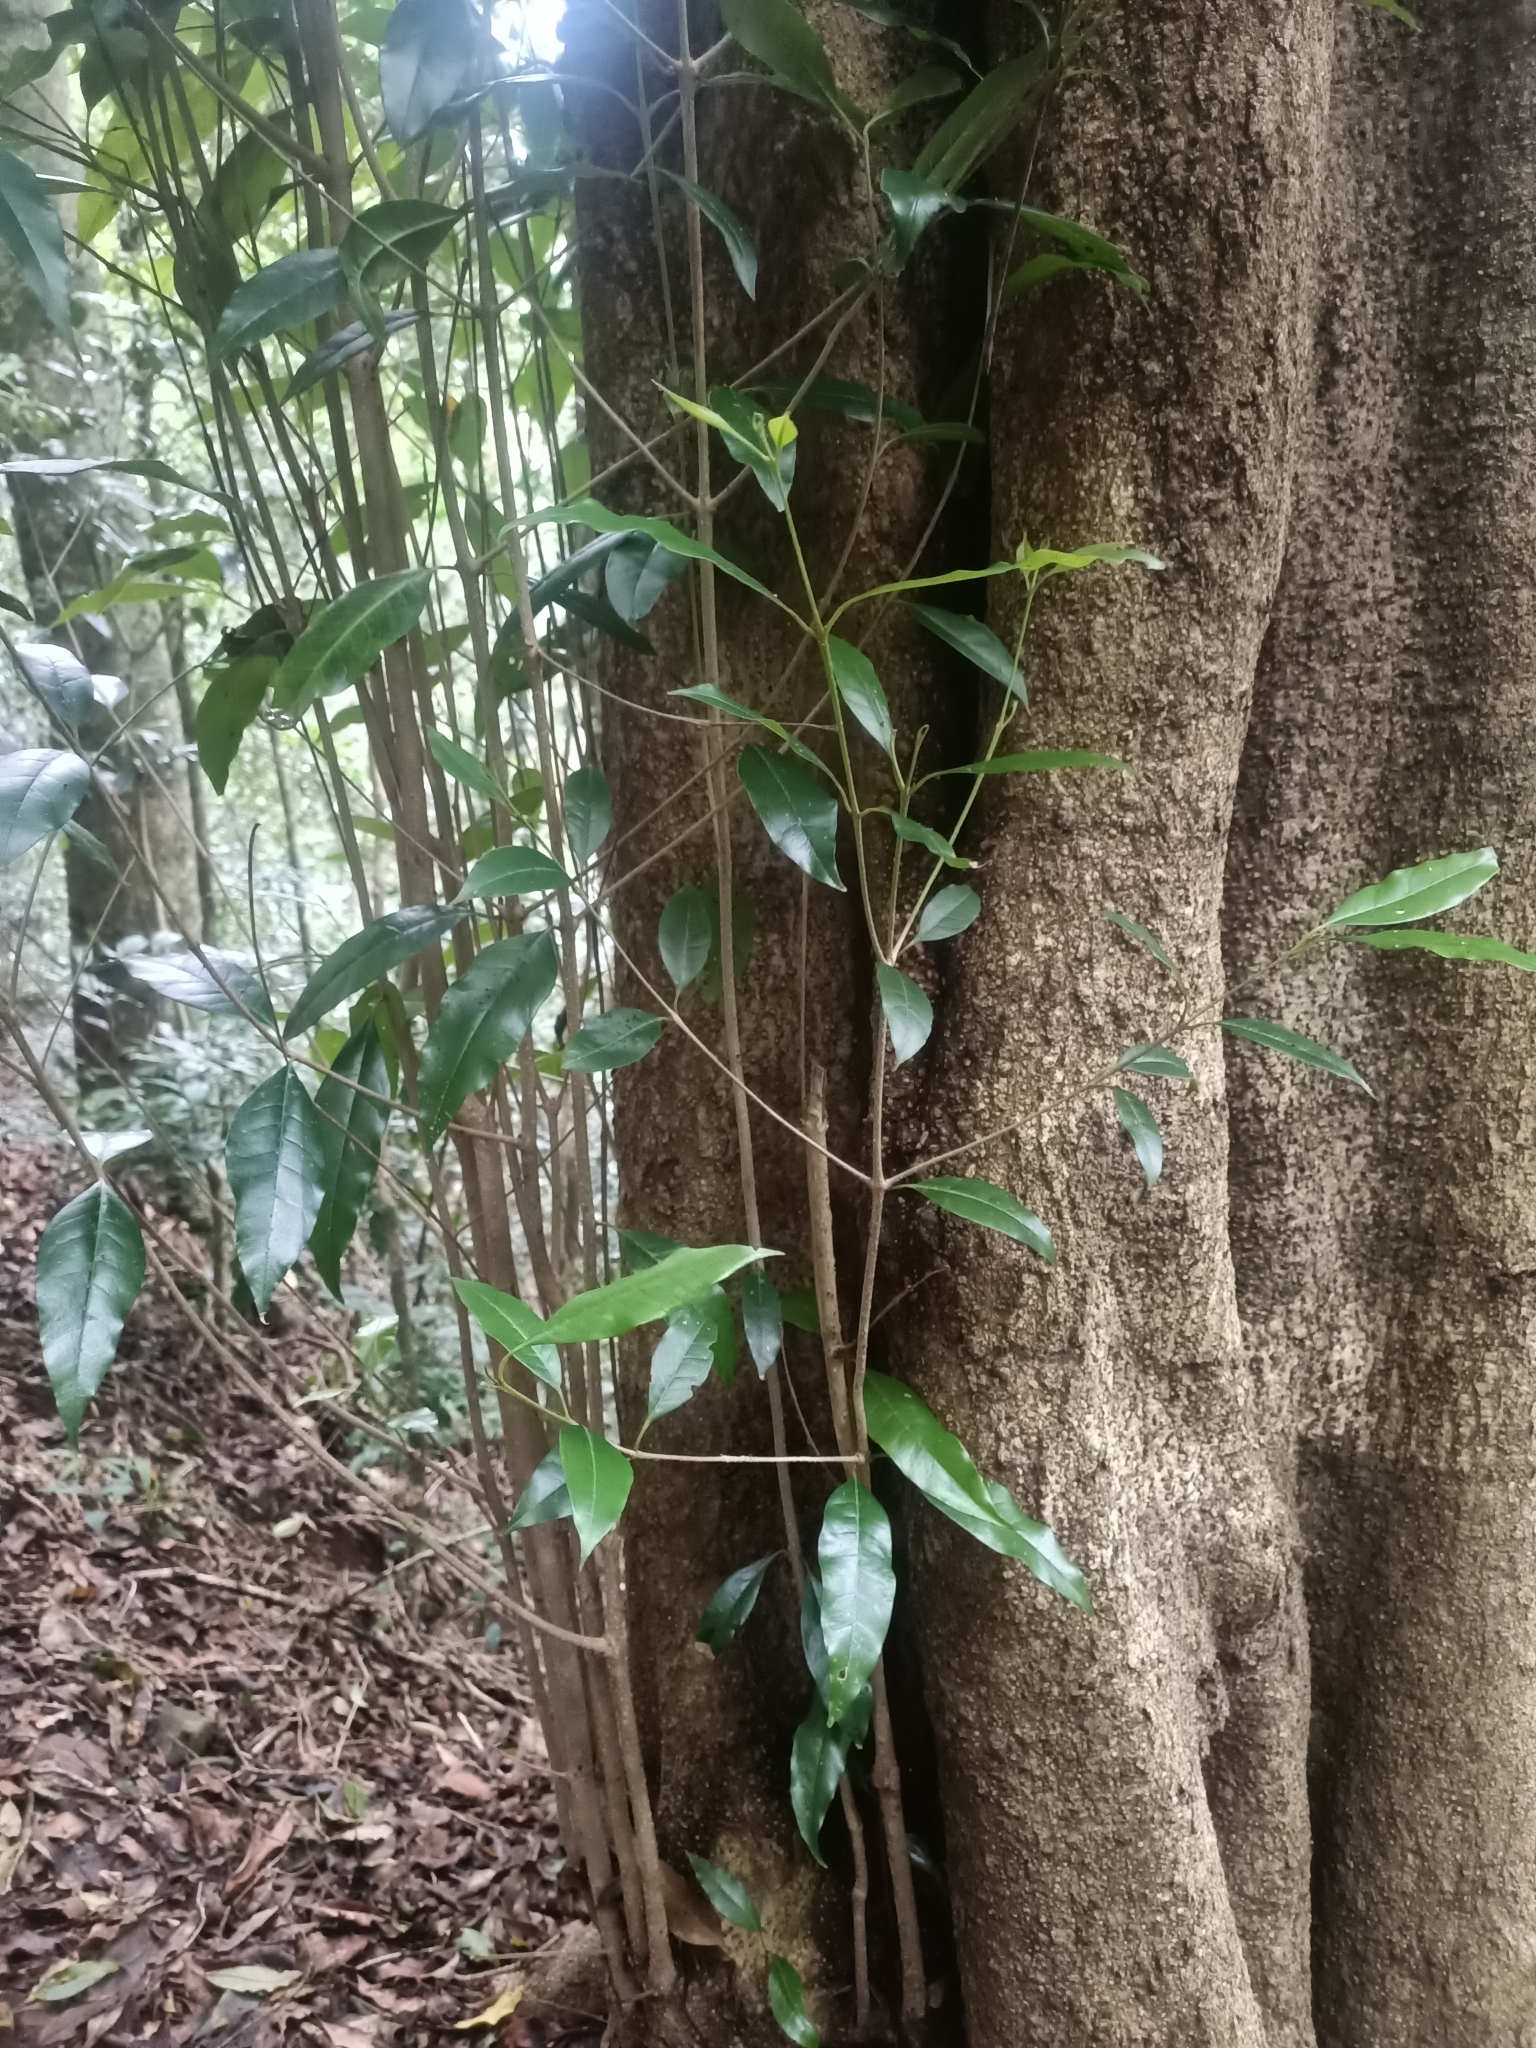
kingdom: Plantae
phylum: Tracheophyta
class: Magnoliopsida
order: Lamiales
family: Oleaceae
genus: Olea
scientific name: Olea paniculata
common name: Australian olive
